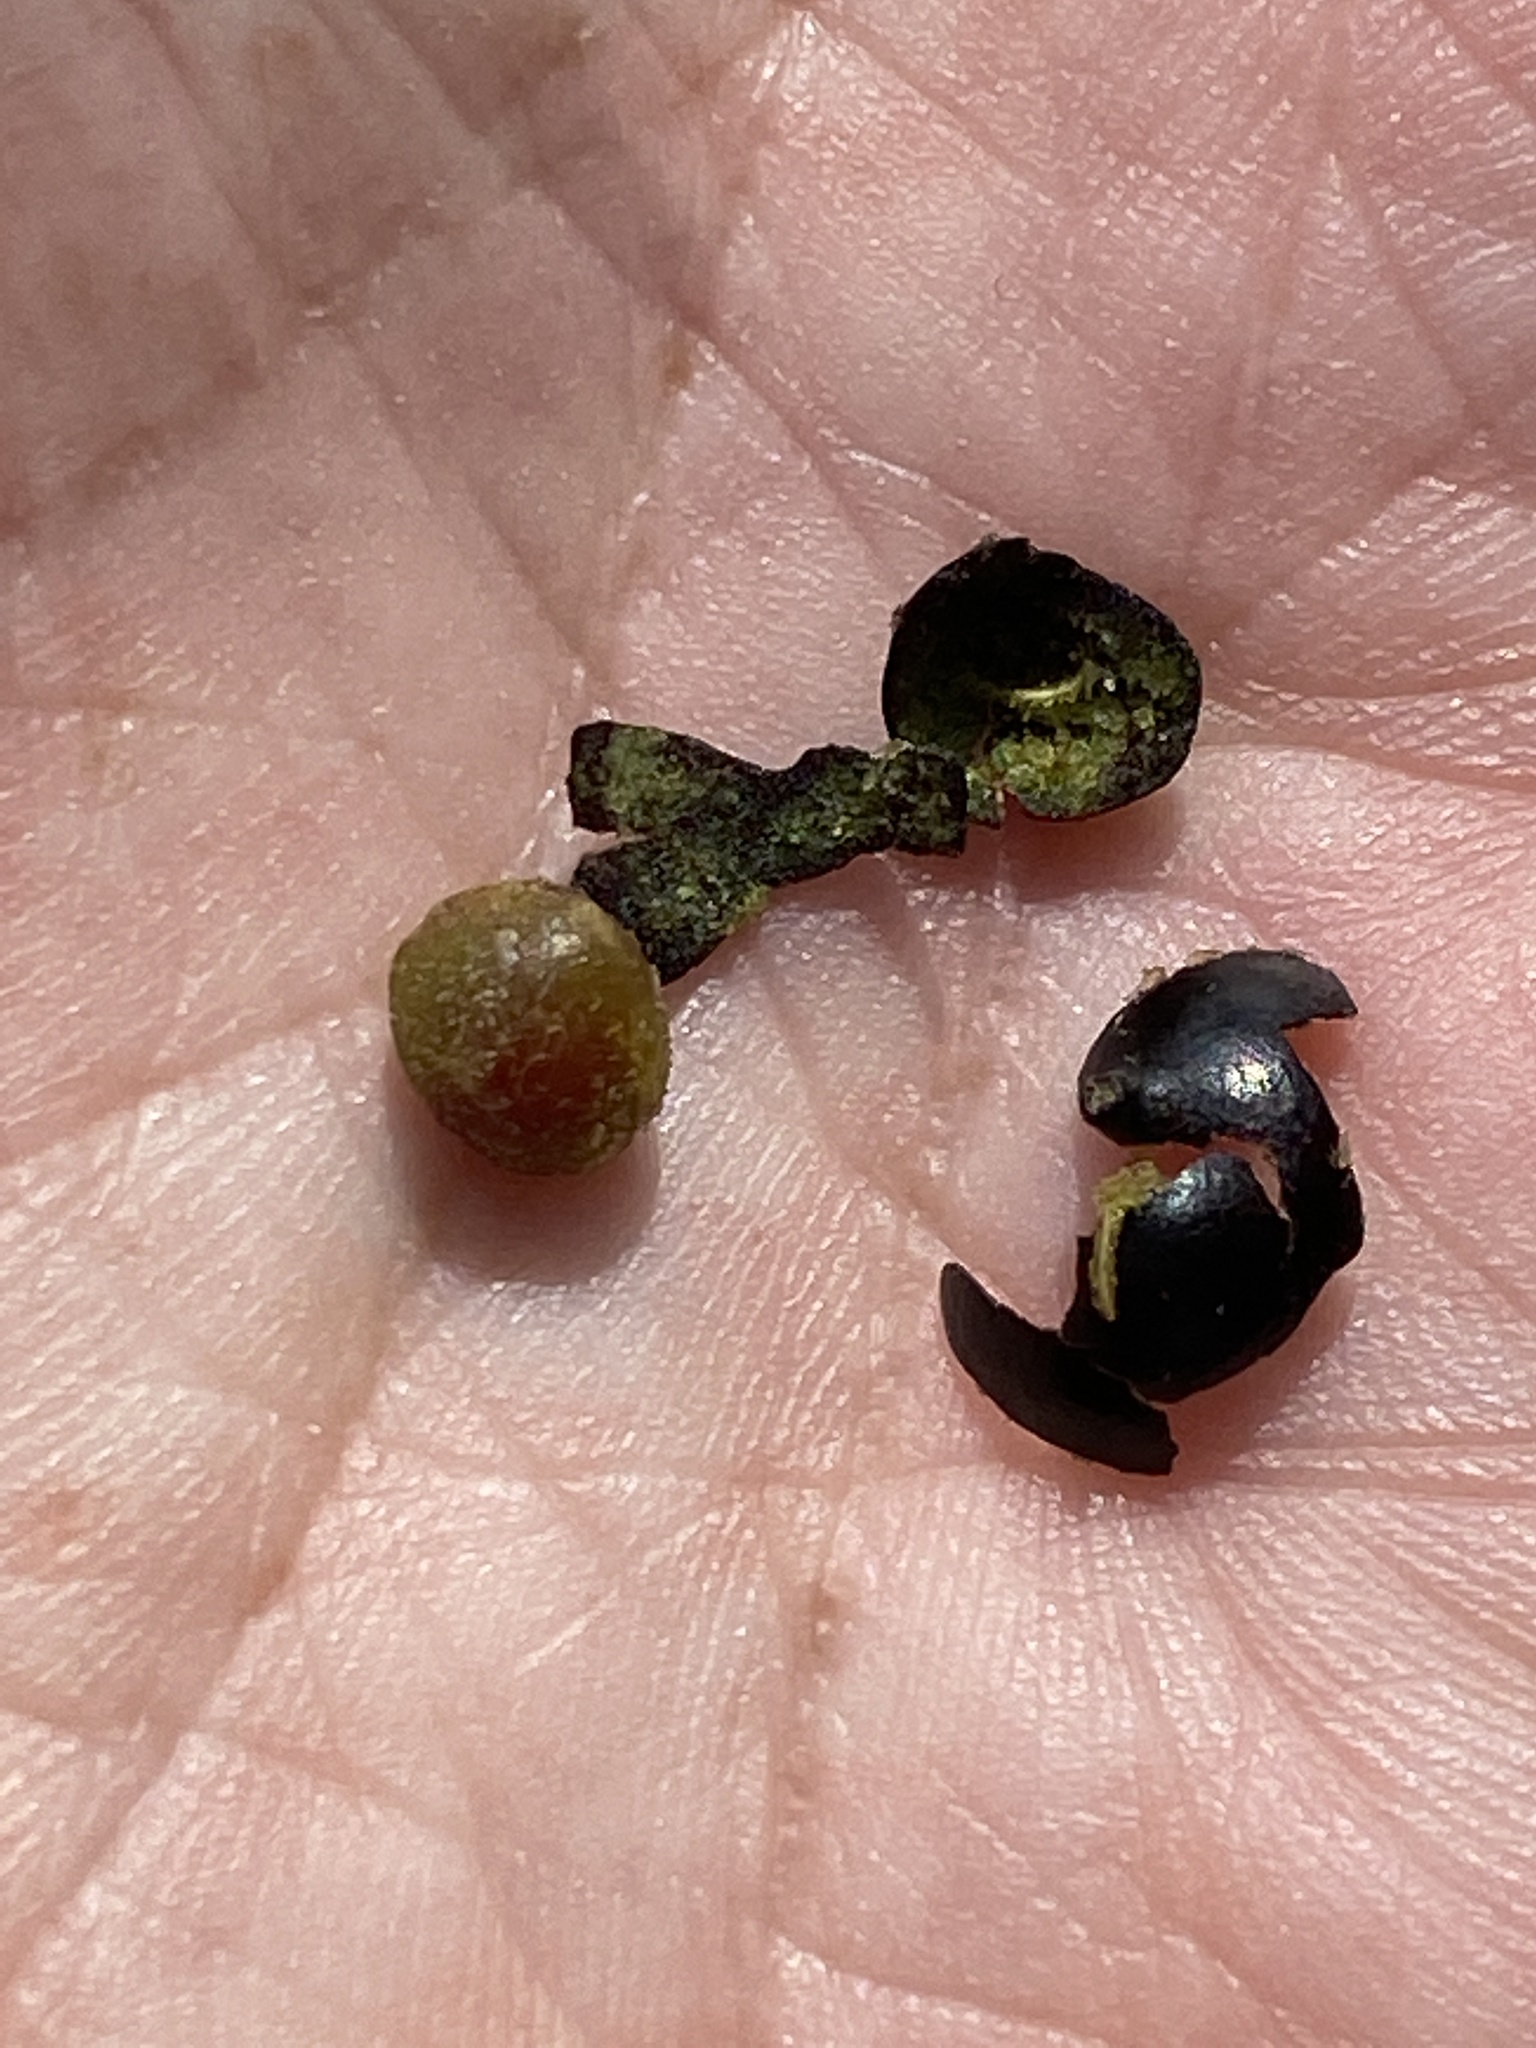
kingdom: Plantae
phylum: Tracheophyta
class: Liliopsida
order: Liliales
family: Smilacaceae
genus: Smilax
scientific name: Smilax bona-nox
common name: Catbrier
